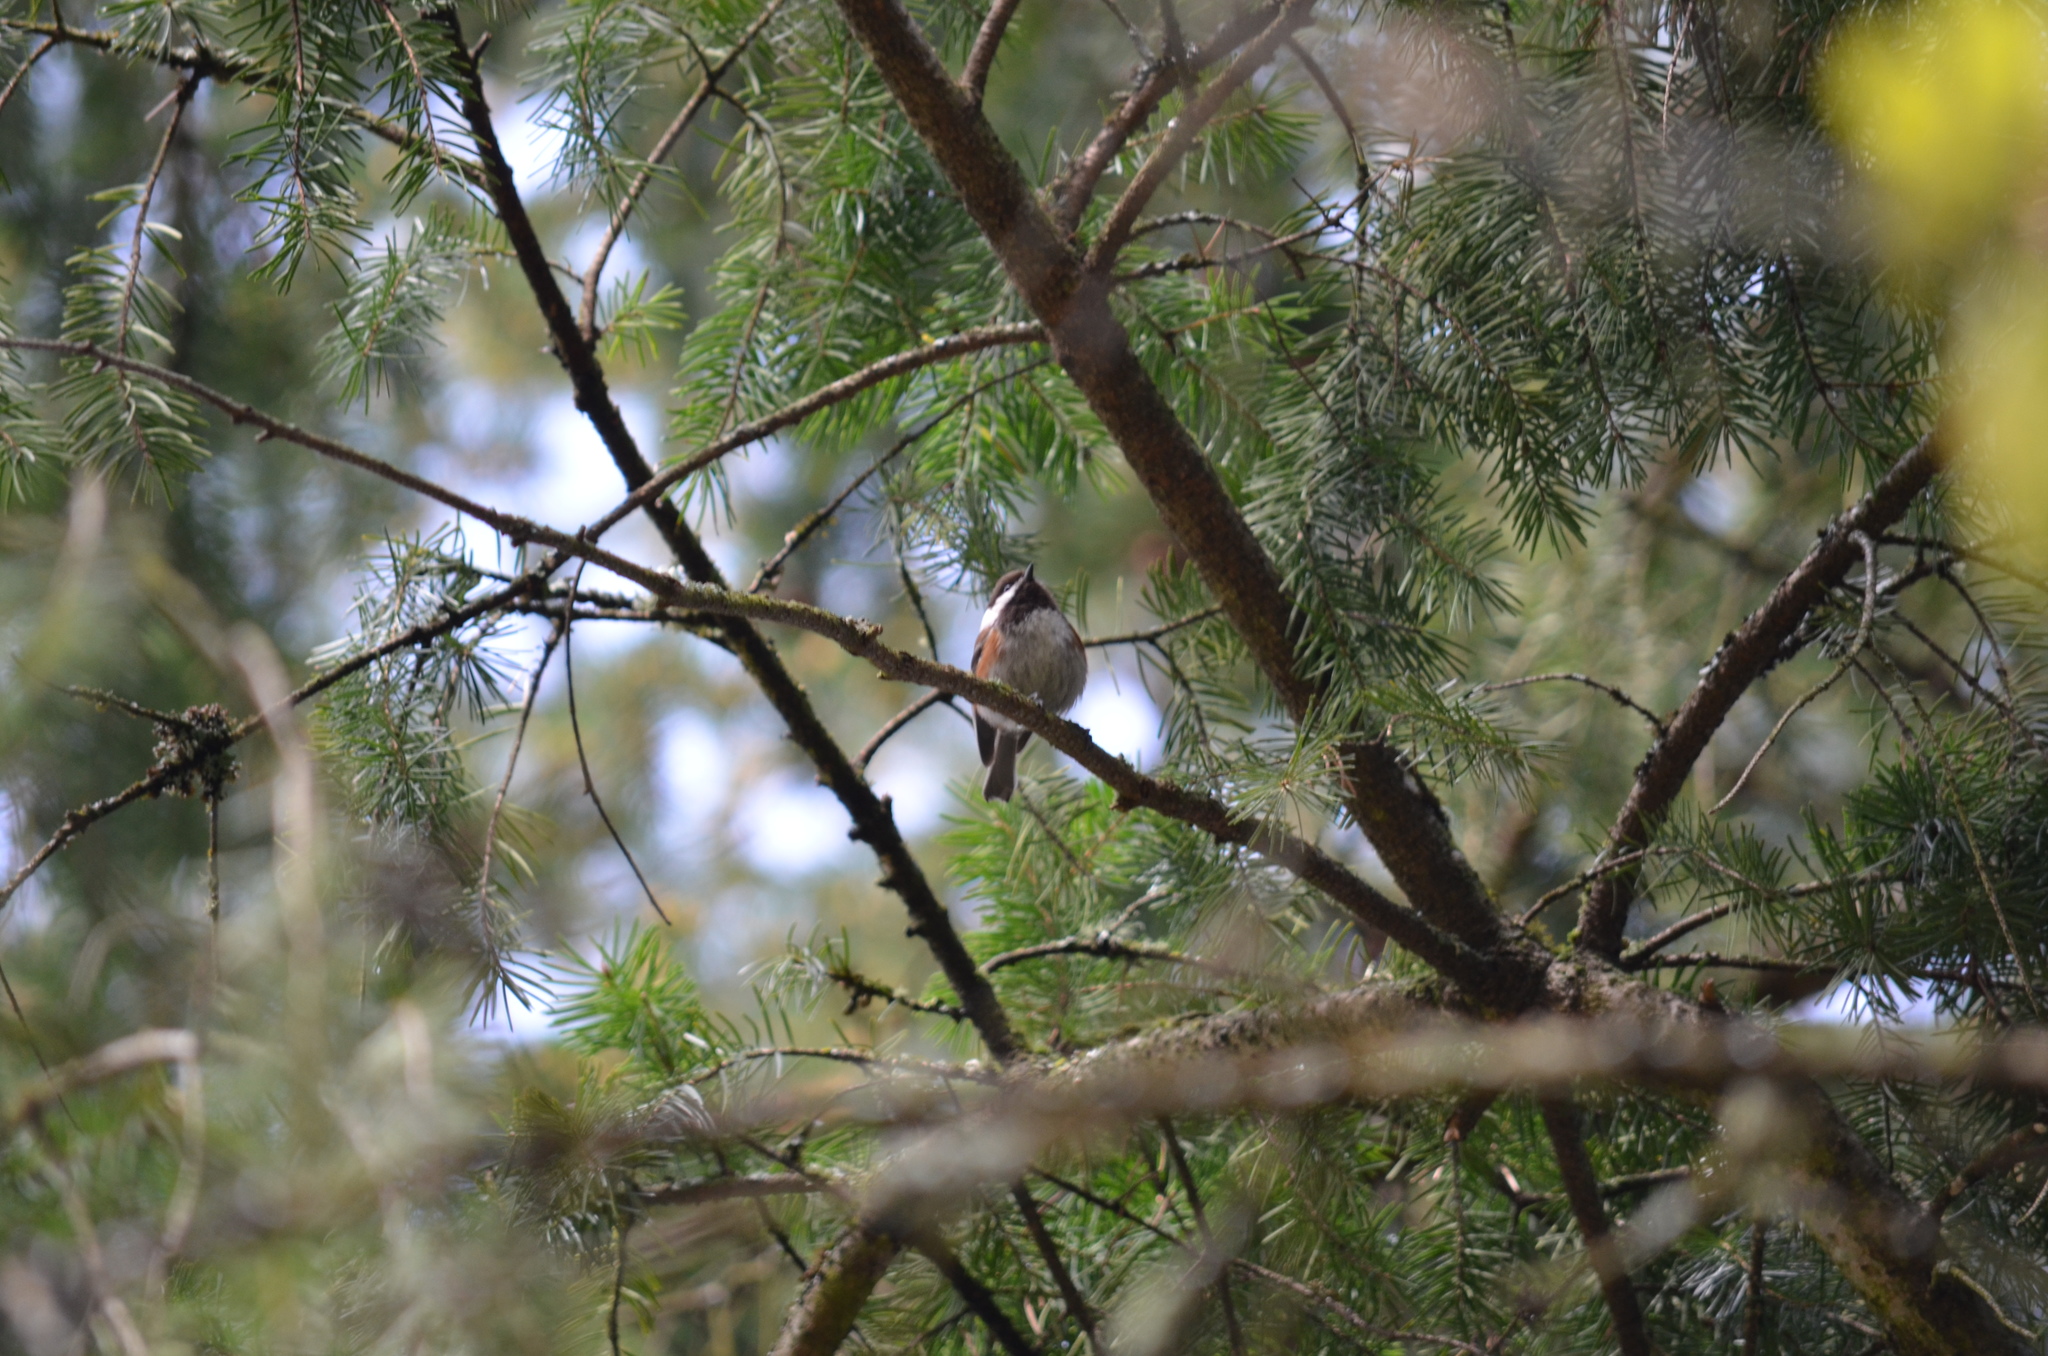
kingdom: Animalia
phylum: Chordata
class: Aves
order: Passeriformes
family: Paridae
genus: Poecile
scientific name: Poecile rufescens
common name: Chestnut-backed chickadee
